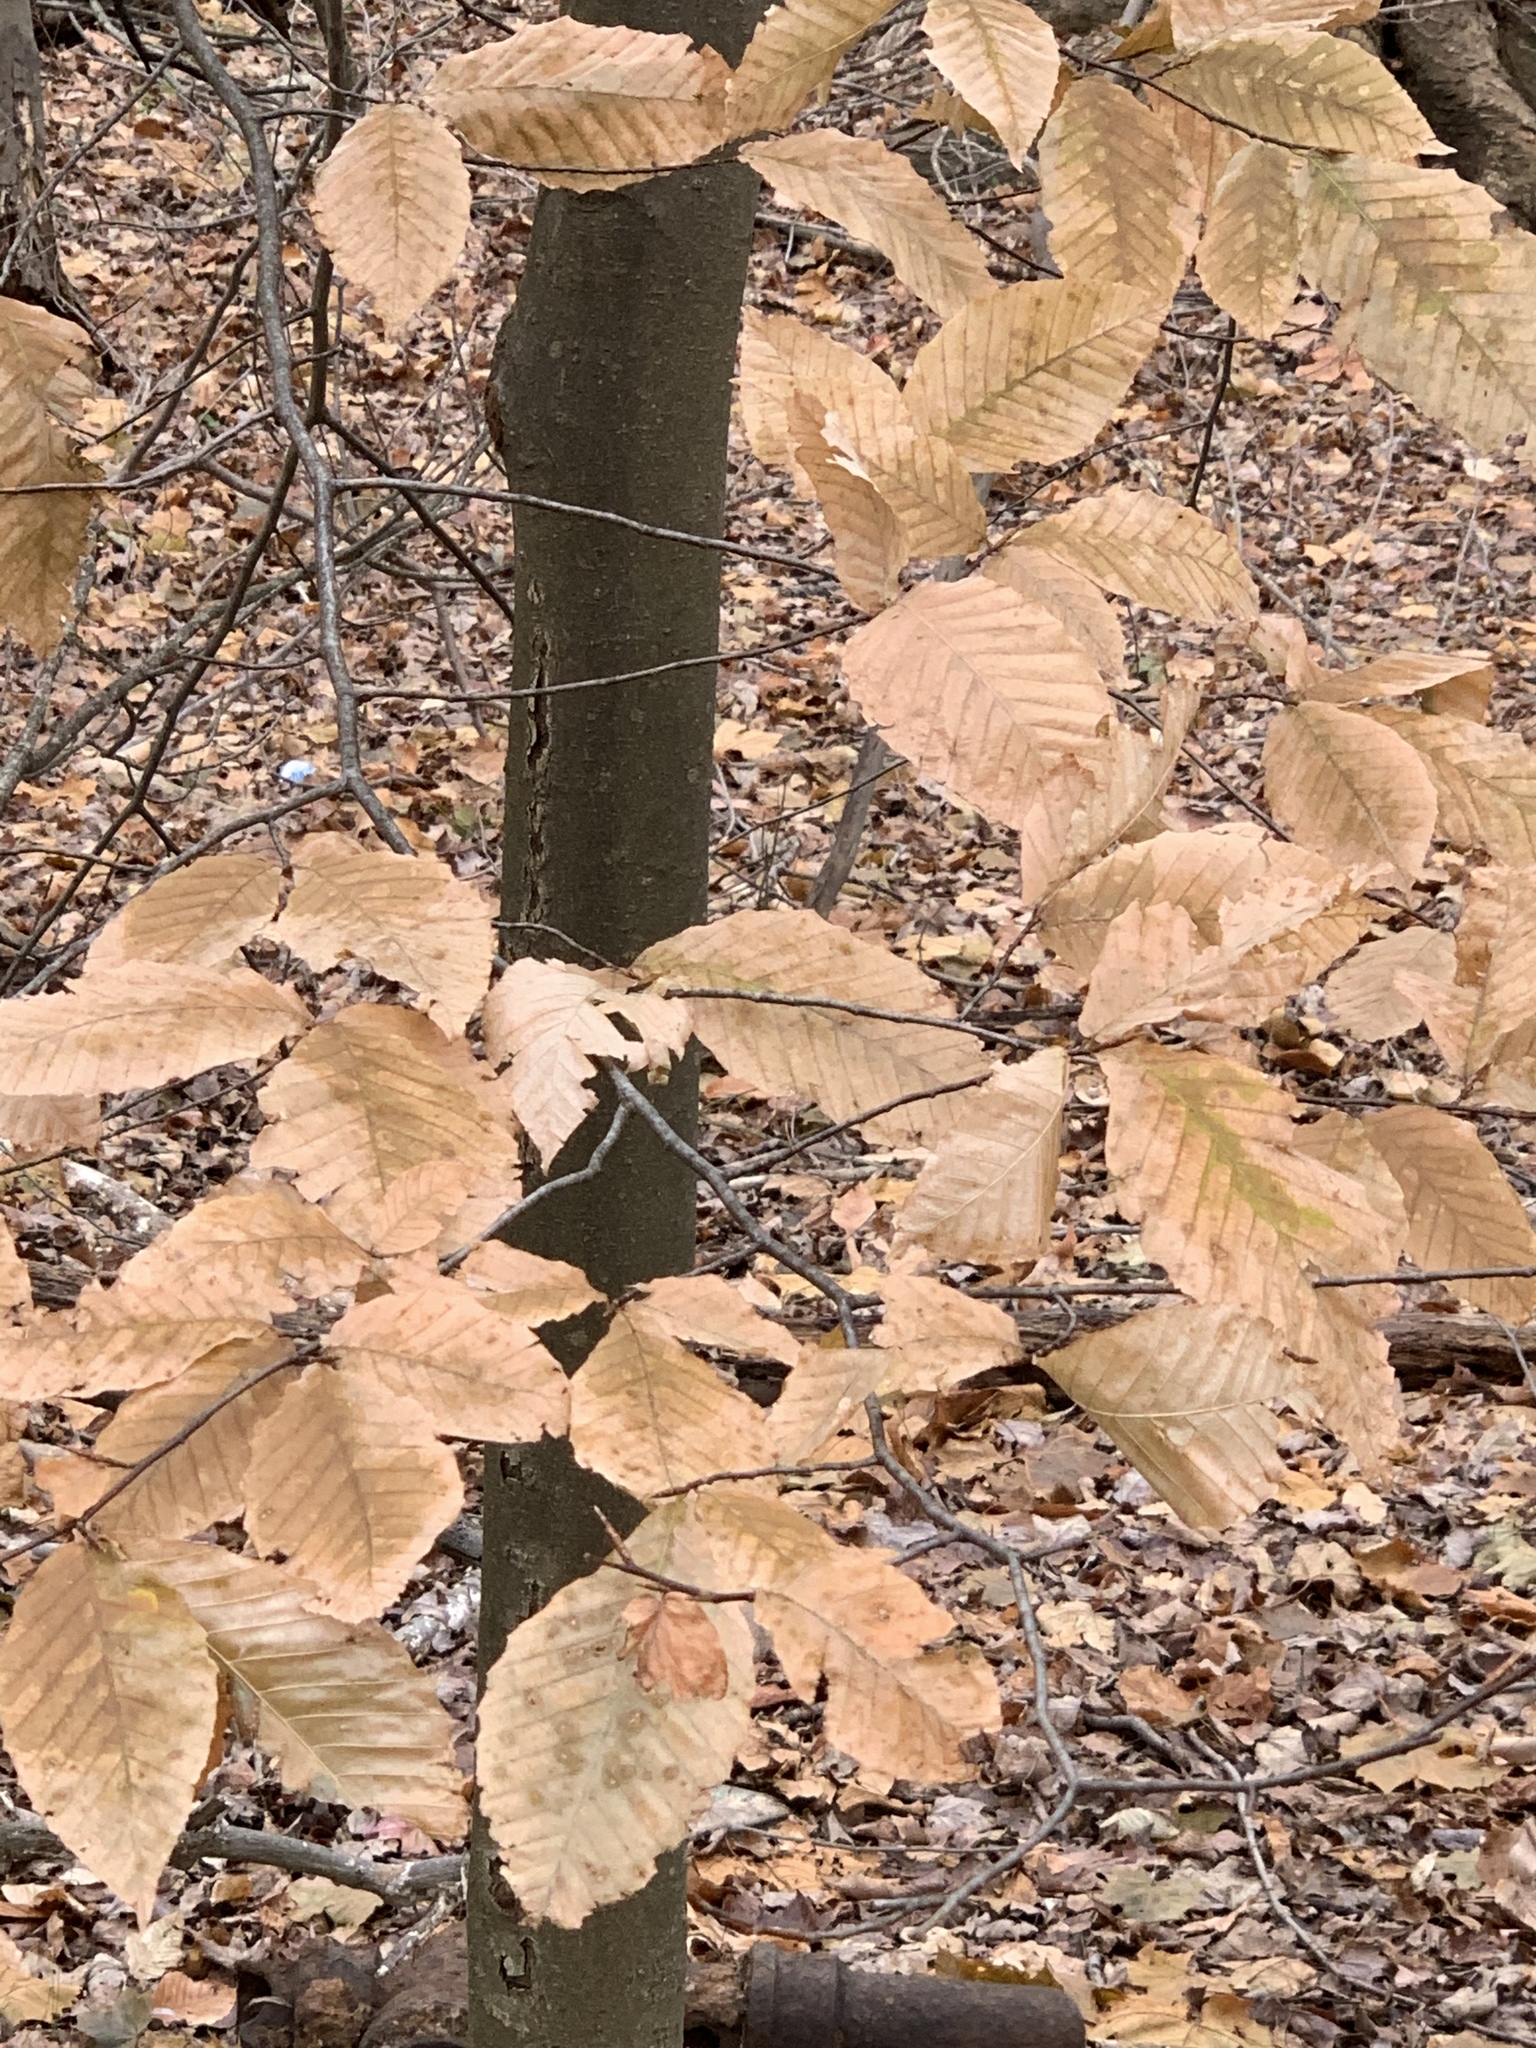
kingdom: Plantae
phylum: Tracheophyta
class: Magnoliopsida
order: Fagales
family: Fagaceae
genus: Fagus
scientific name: Fagus grandifolia
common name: American beech
